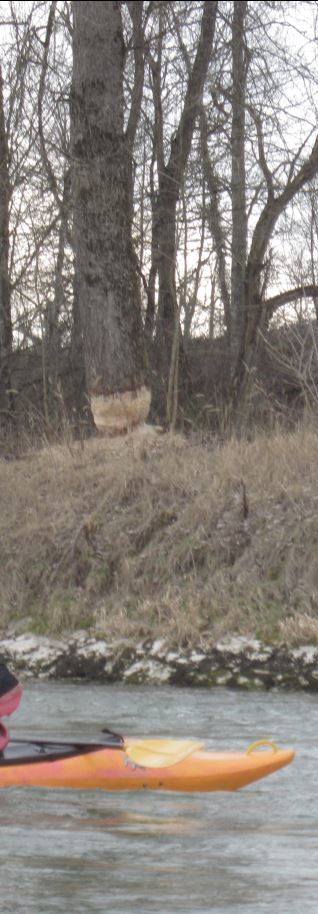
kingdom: Animalia
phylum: Chordata
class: Mammalia
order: Rodentia
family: Castoridae
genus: Castor
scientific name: Castor fiber
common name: Eurasian beaver
